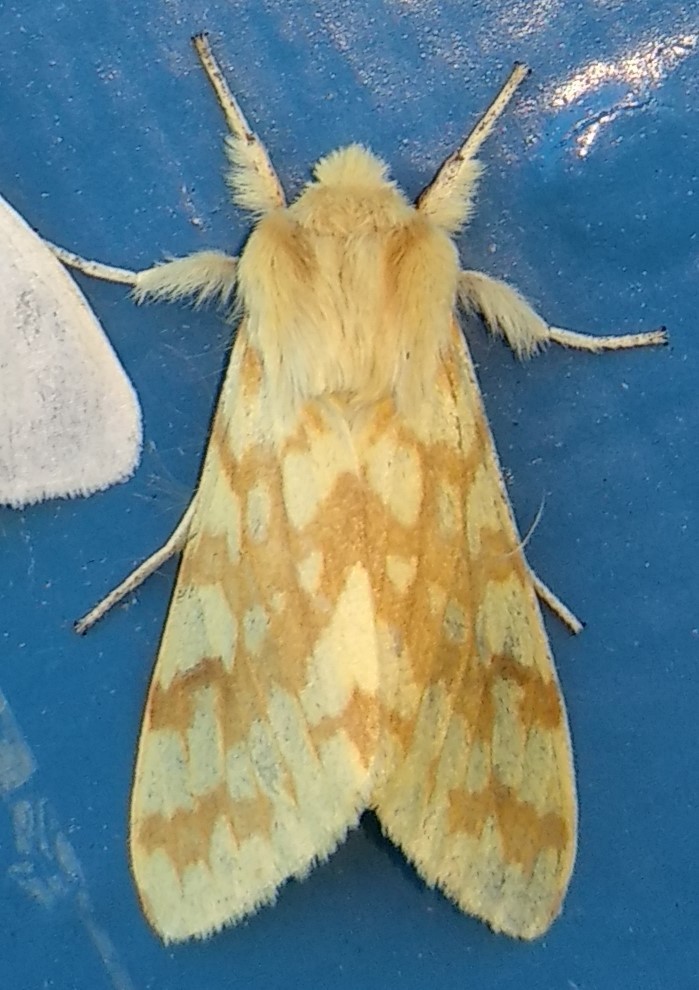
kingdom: Animalia
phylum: Arthropoda
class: Insecta
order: Lepidoptera
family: Erebidae
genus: Lophocampa
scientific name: Lophocampa maculata
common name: Spotted tussock moth
